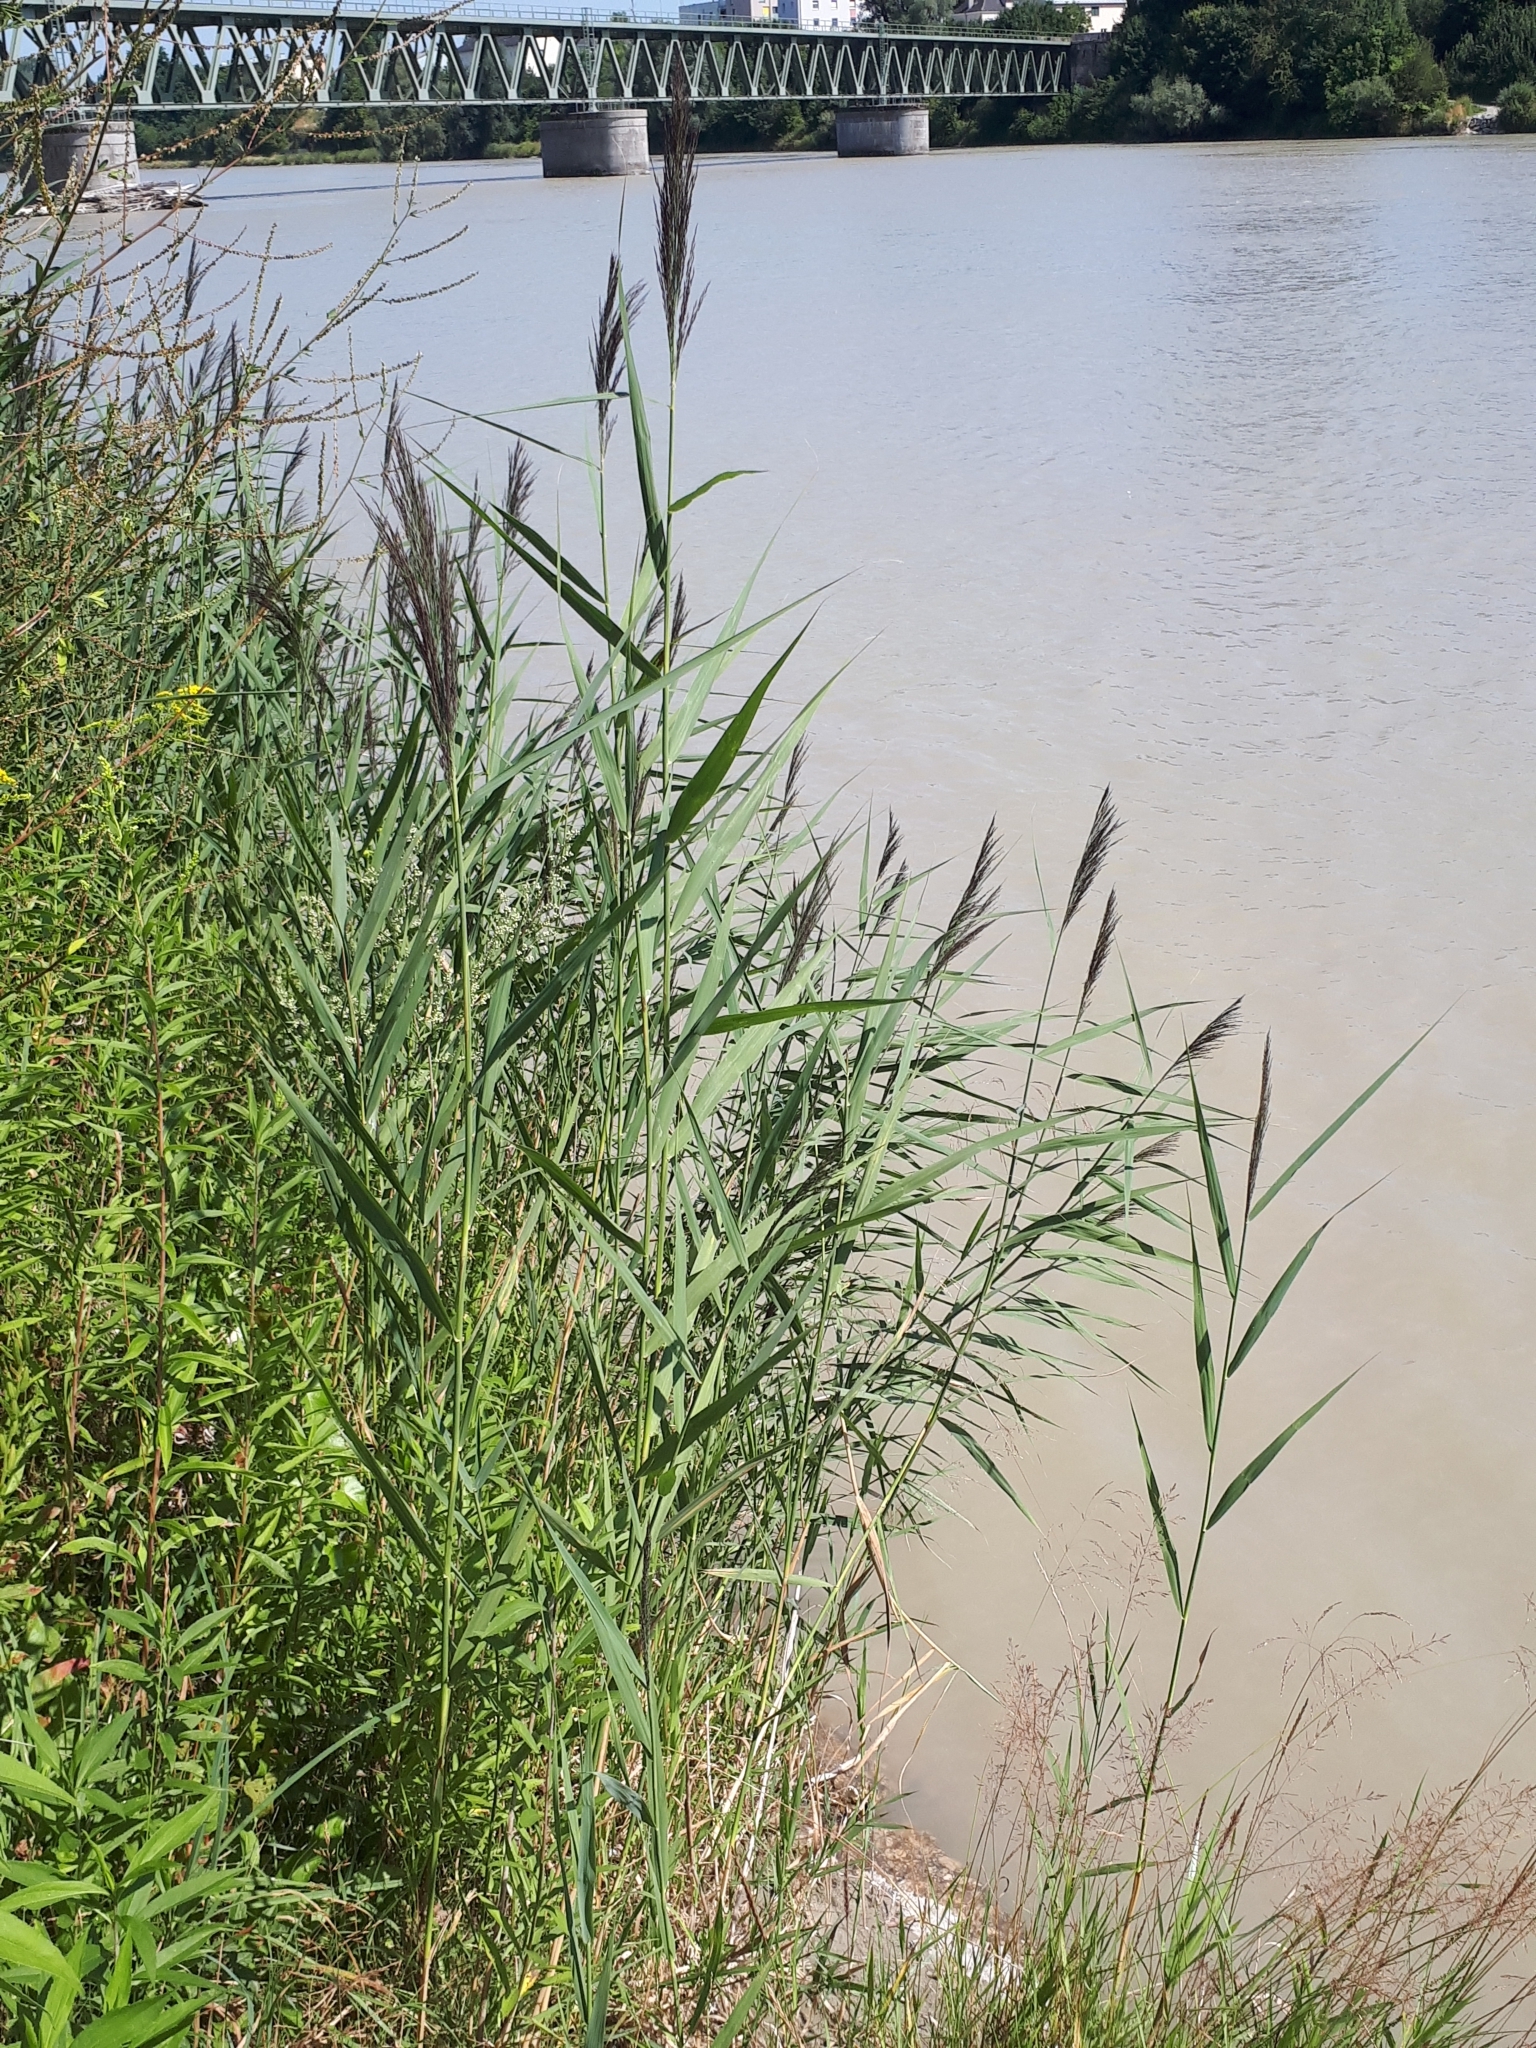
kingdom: Plantae
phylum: Tracheophyta
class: Liliopsida
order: Poales
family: Poaceae
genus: Phragmites
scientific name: Phragmites australis
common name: Common reed
